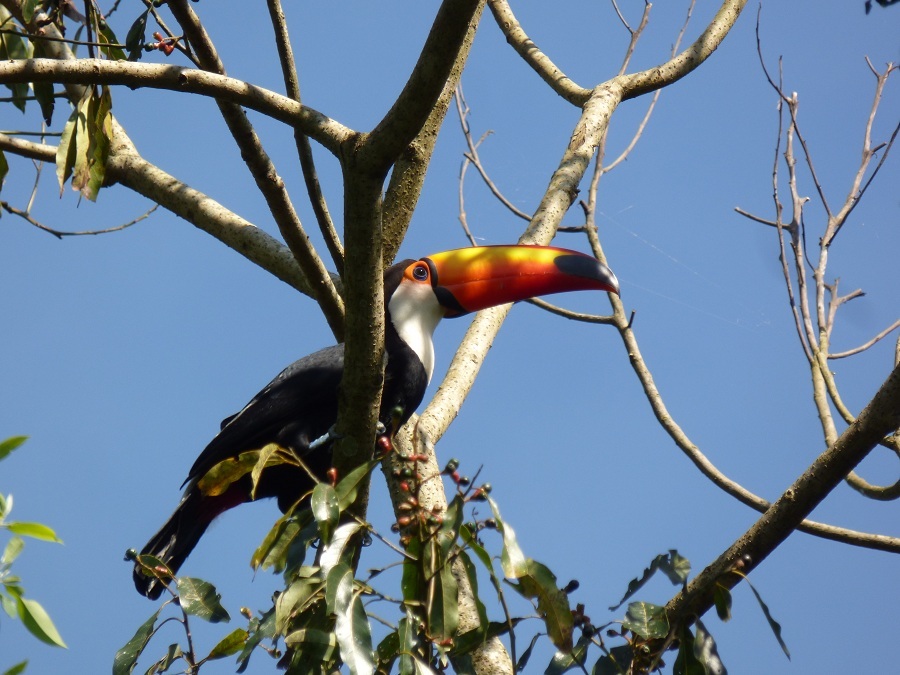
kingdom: Animalia
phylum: Chordata
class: Aves
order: Piciformes
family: Ramphastidae
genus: Ramphastos
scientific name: Ramphastos toco
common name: Toco toucan
